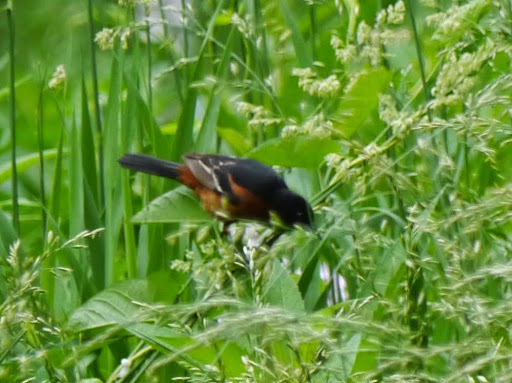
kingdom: Animalia
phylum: Chordata
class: Aves
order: Passeriformes
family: Icteridae
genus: Icterus
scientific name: Icterus spurius
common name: Orchard oriole
